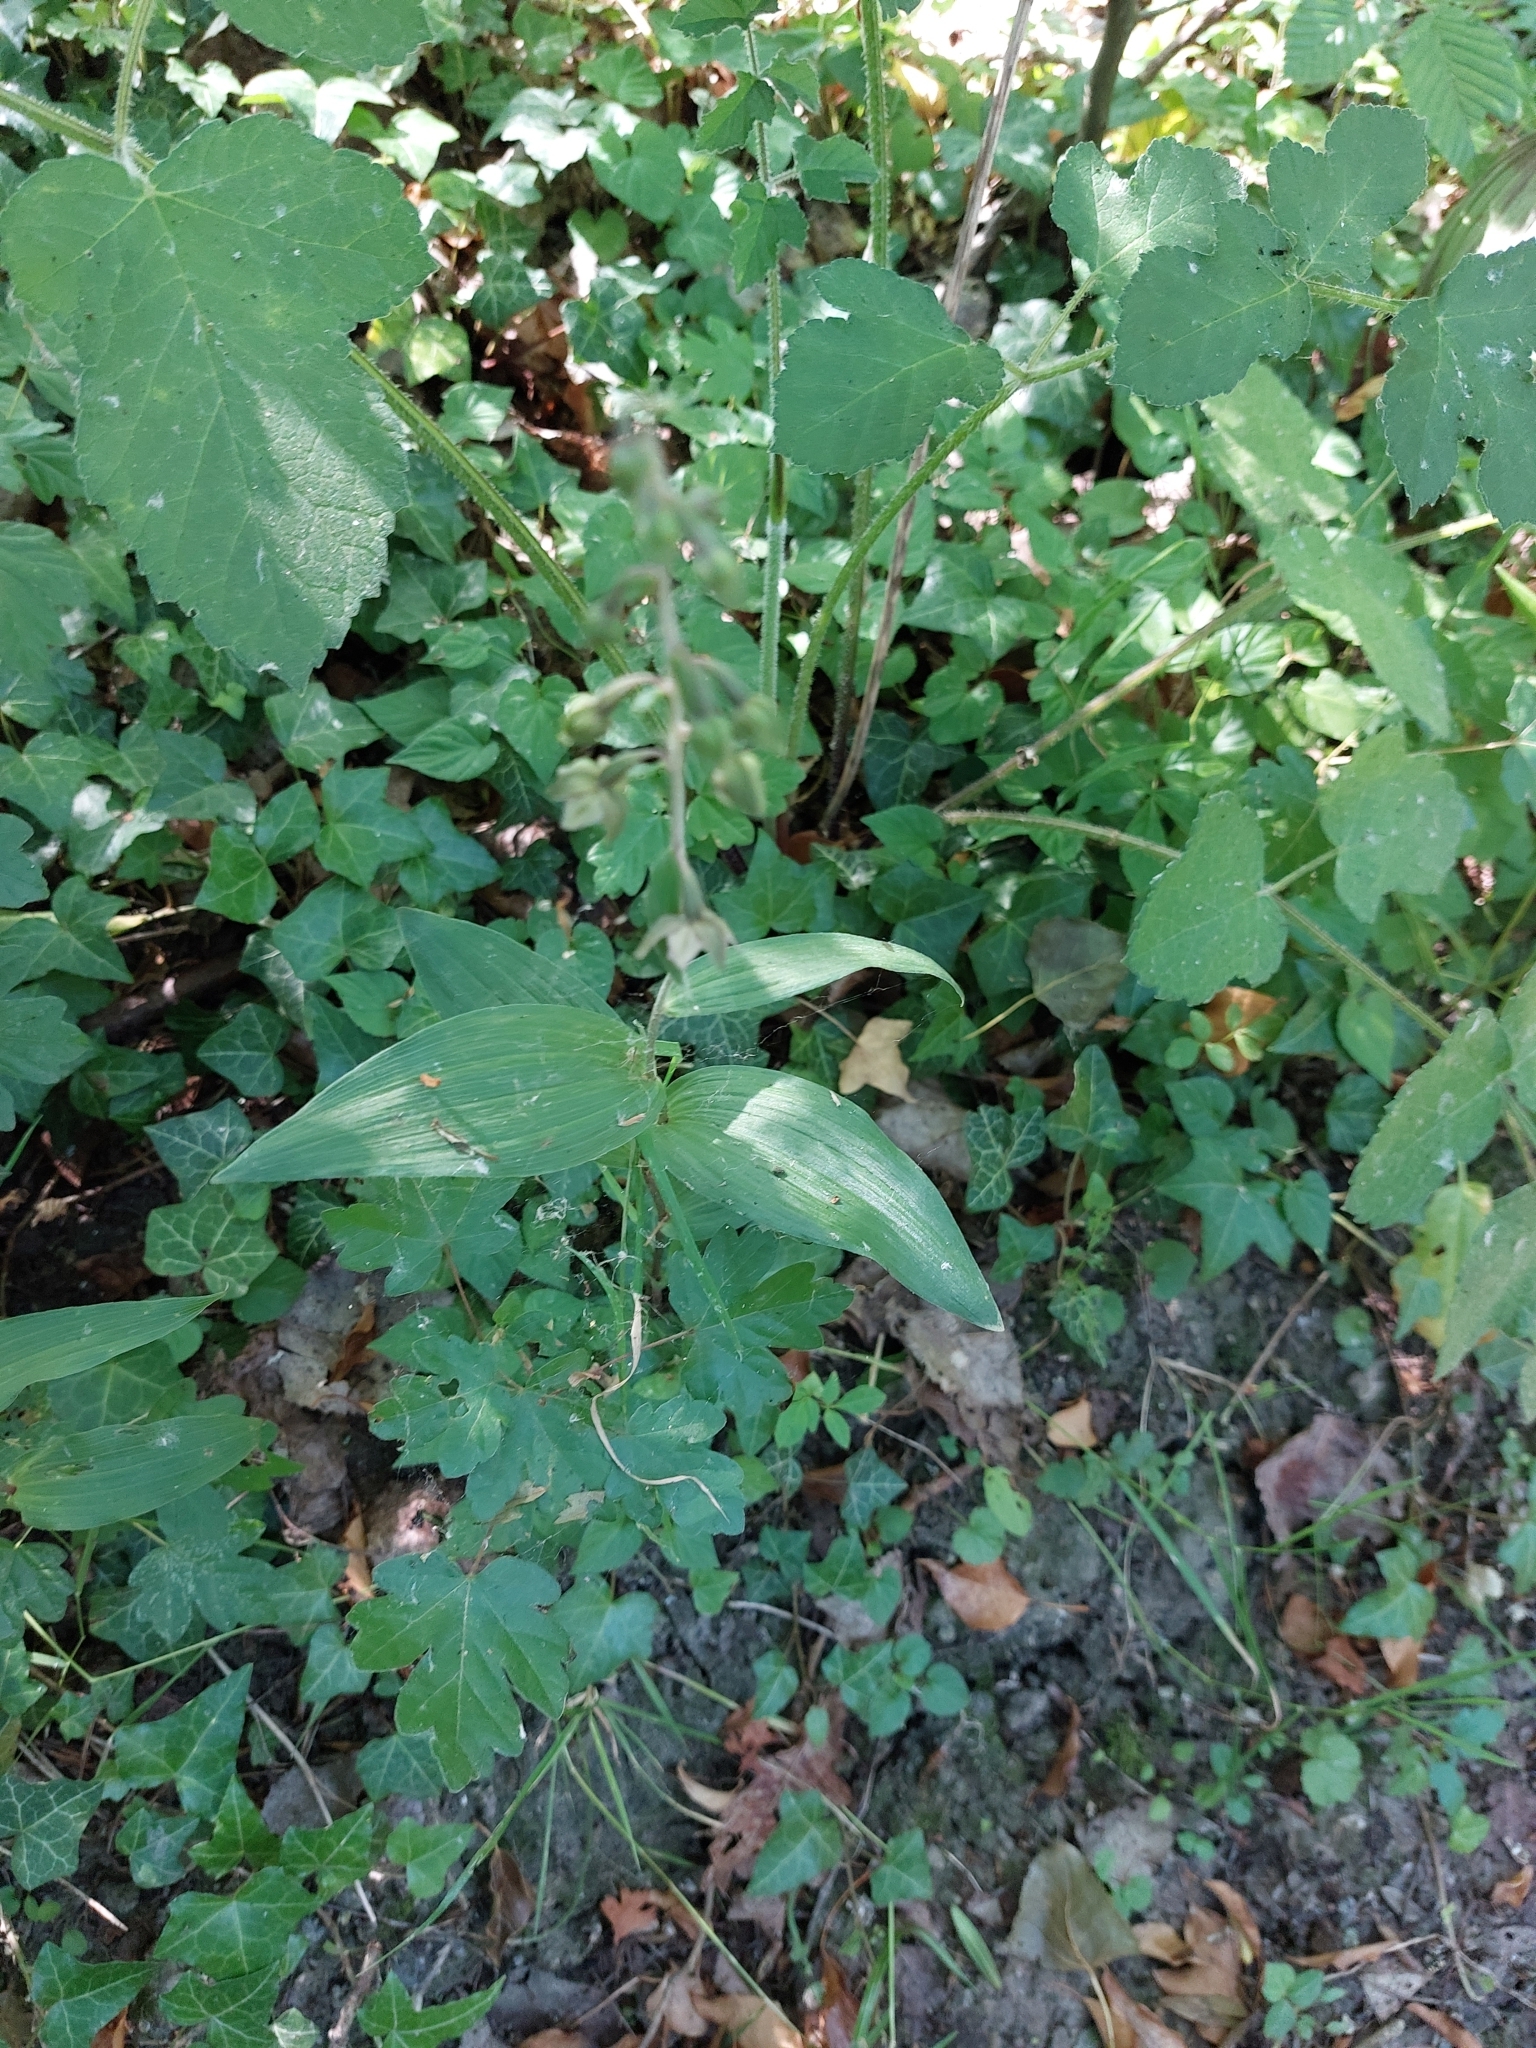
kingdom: Plantae
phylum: Tracheophyta
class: Liliopsida
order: Asparagales
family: Orchidaceae
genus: Epipactis
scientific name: Epipactis helleborine
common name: Broad-leaved helleborine
